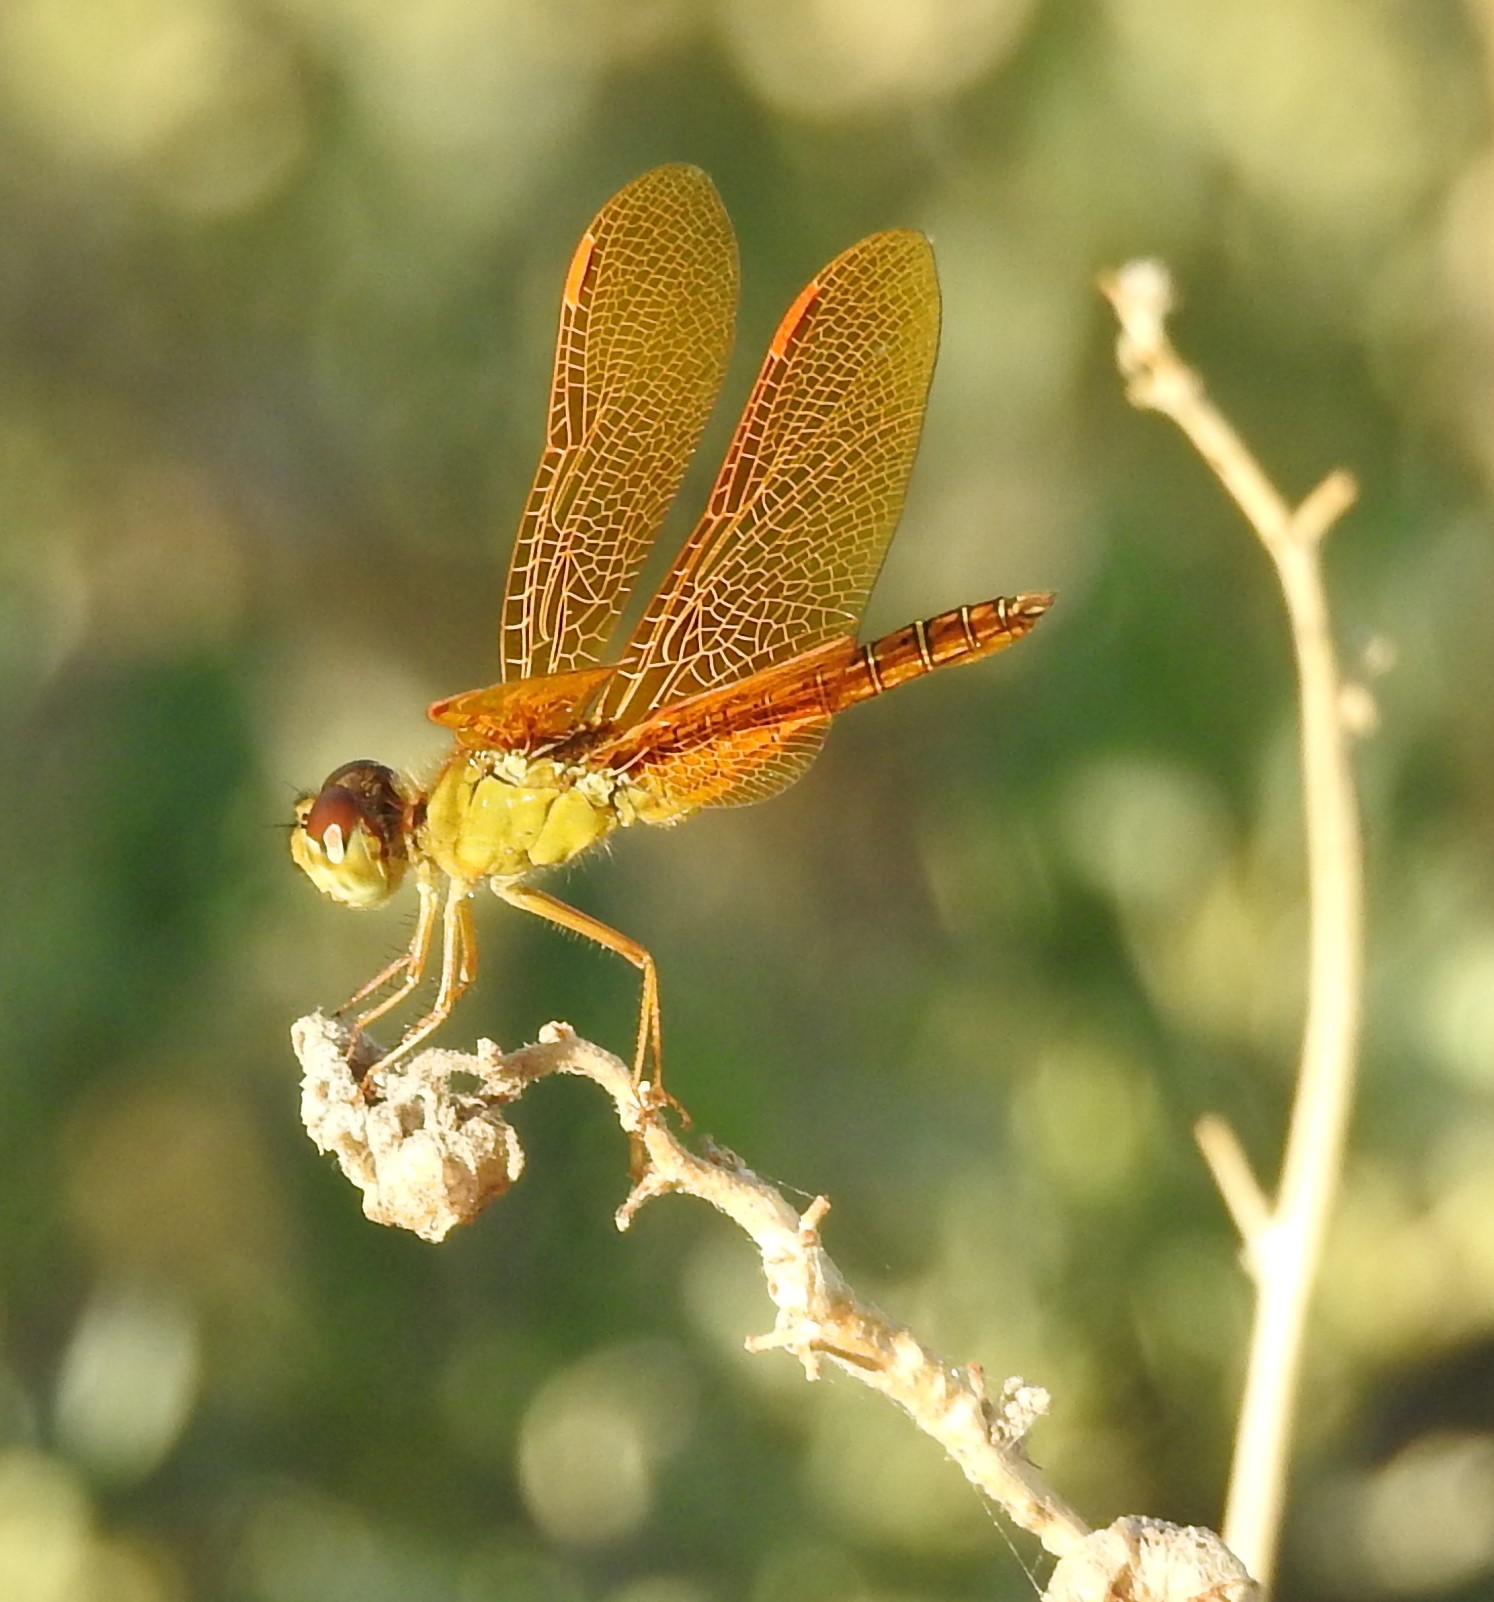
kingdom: Animalia
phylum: Arthropoda
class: Insecta
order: Odonata
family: Libellulidae
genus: Perithemis
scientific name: Perithemis intensa
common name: Mexican amberwing
